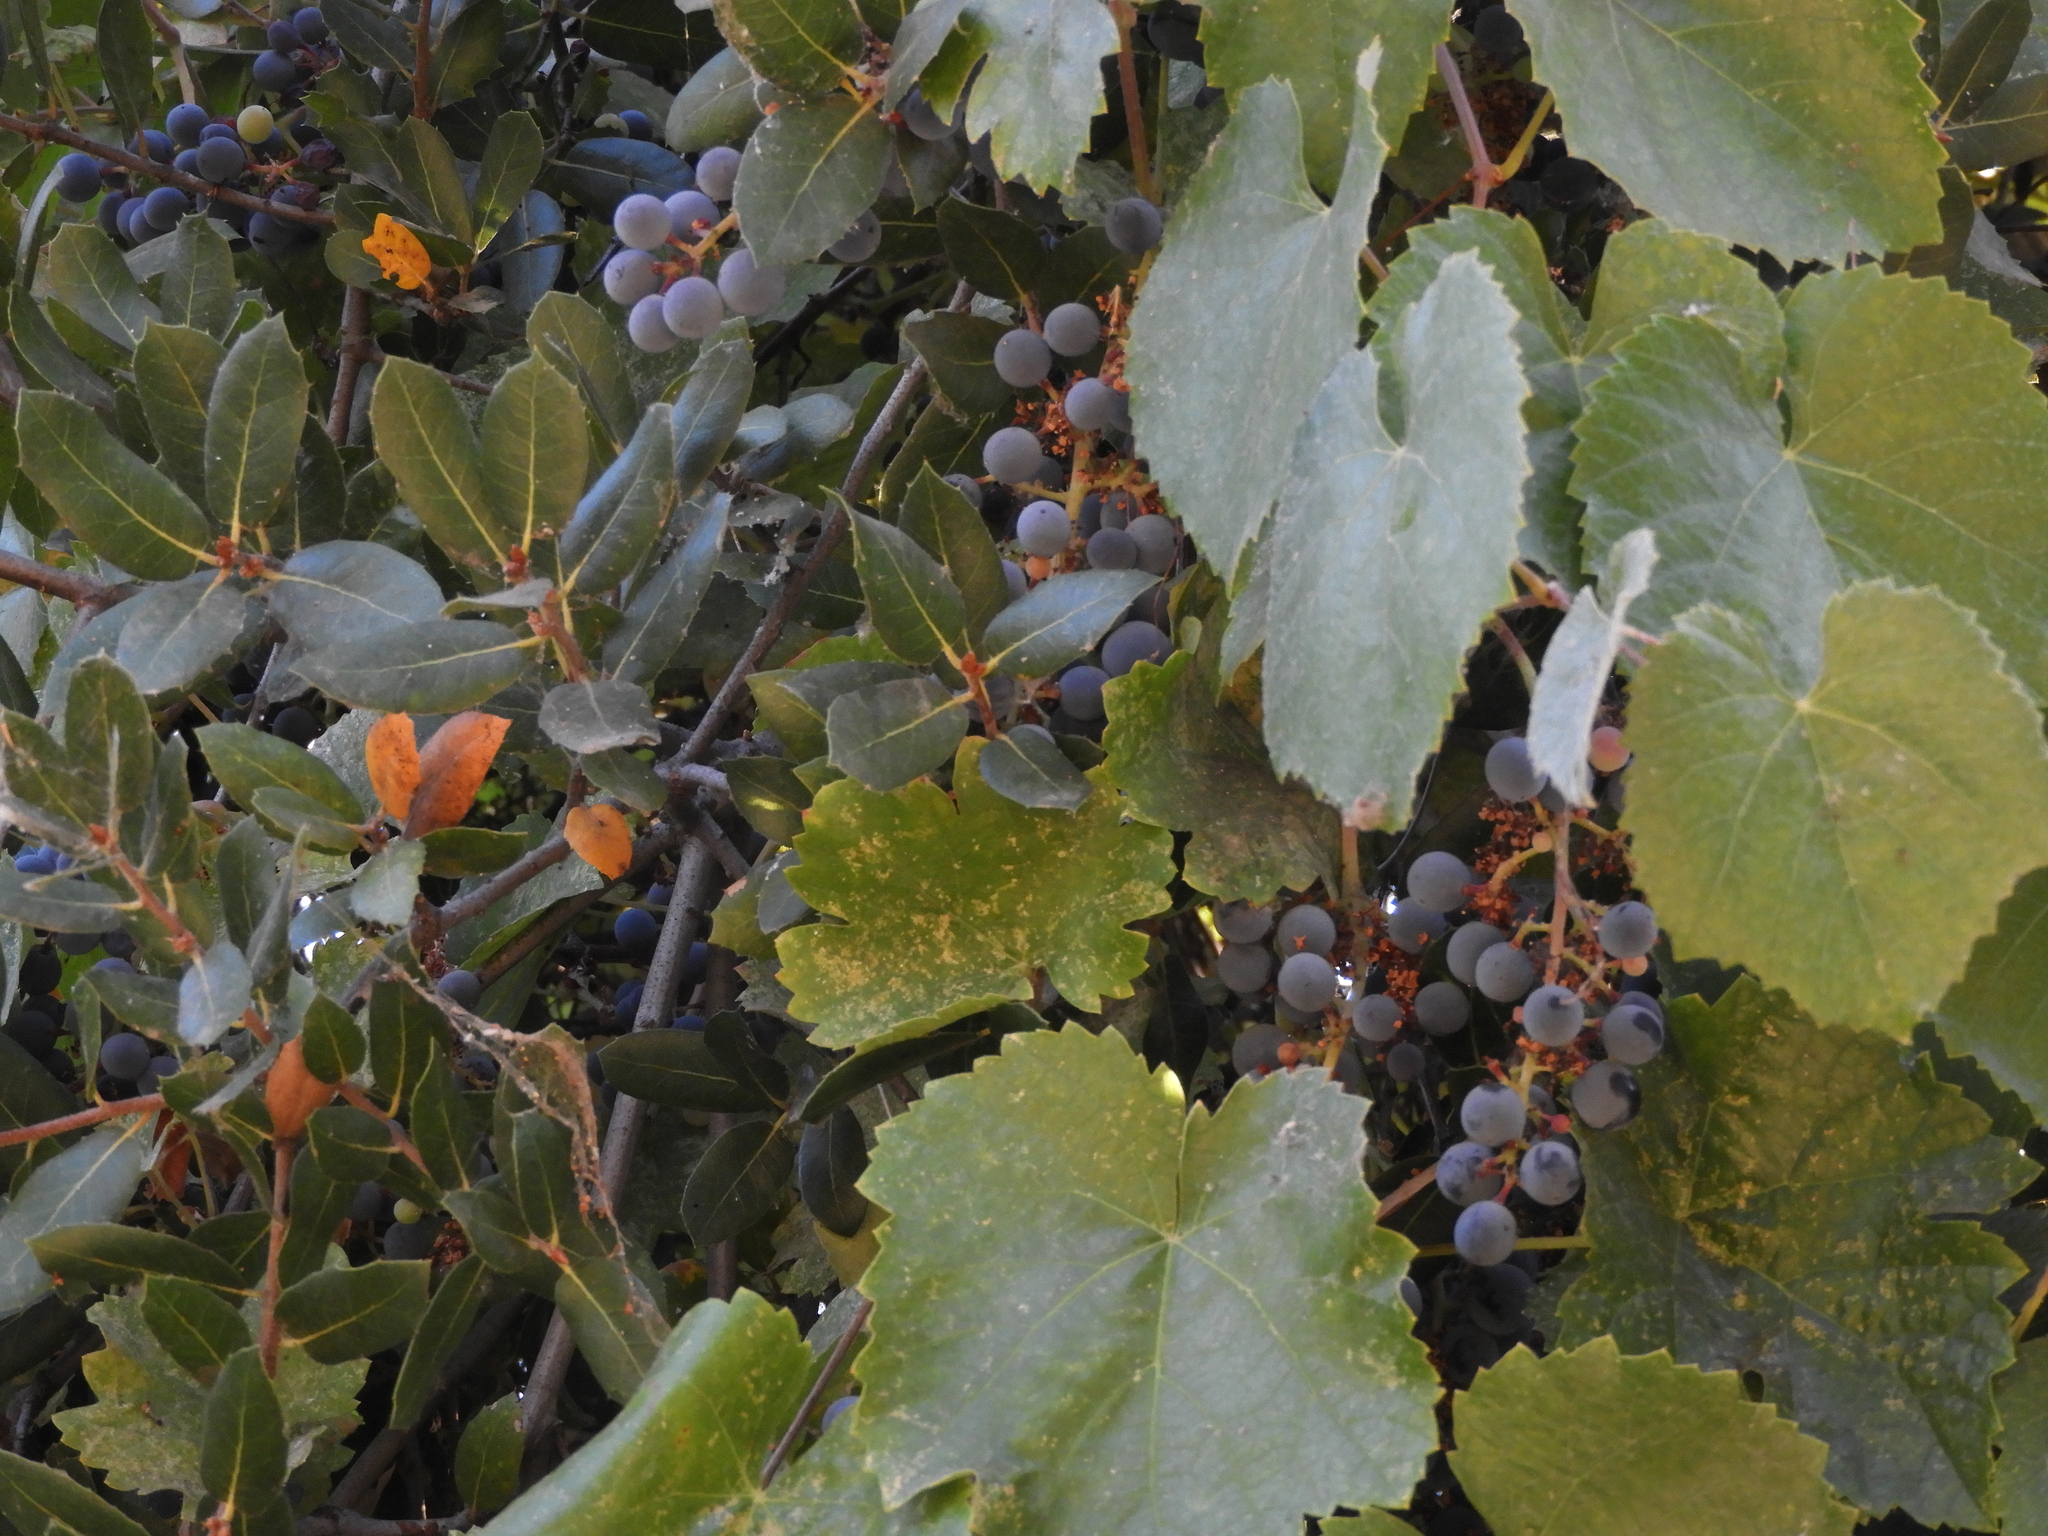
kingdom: Plantae
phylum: Tracheophyta
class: Magnoliopsida
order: Vitales
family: Vitaceae
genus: Vitis
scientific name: Vitis californica
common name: California wild grape
